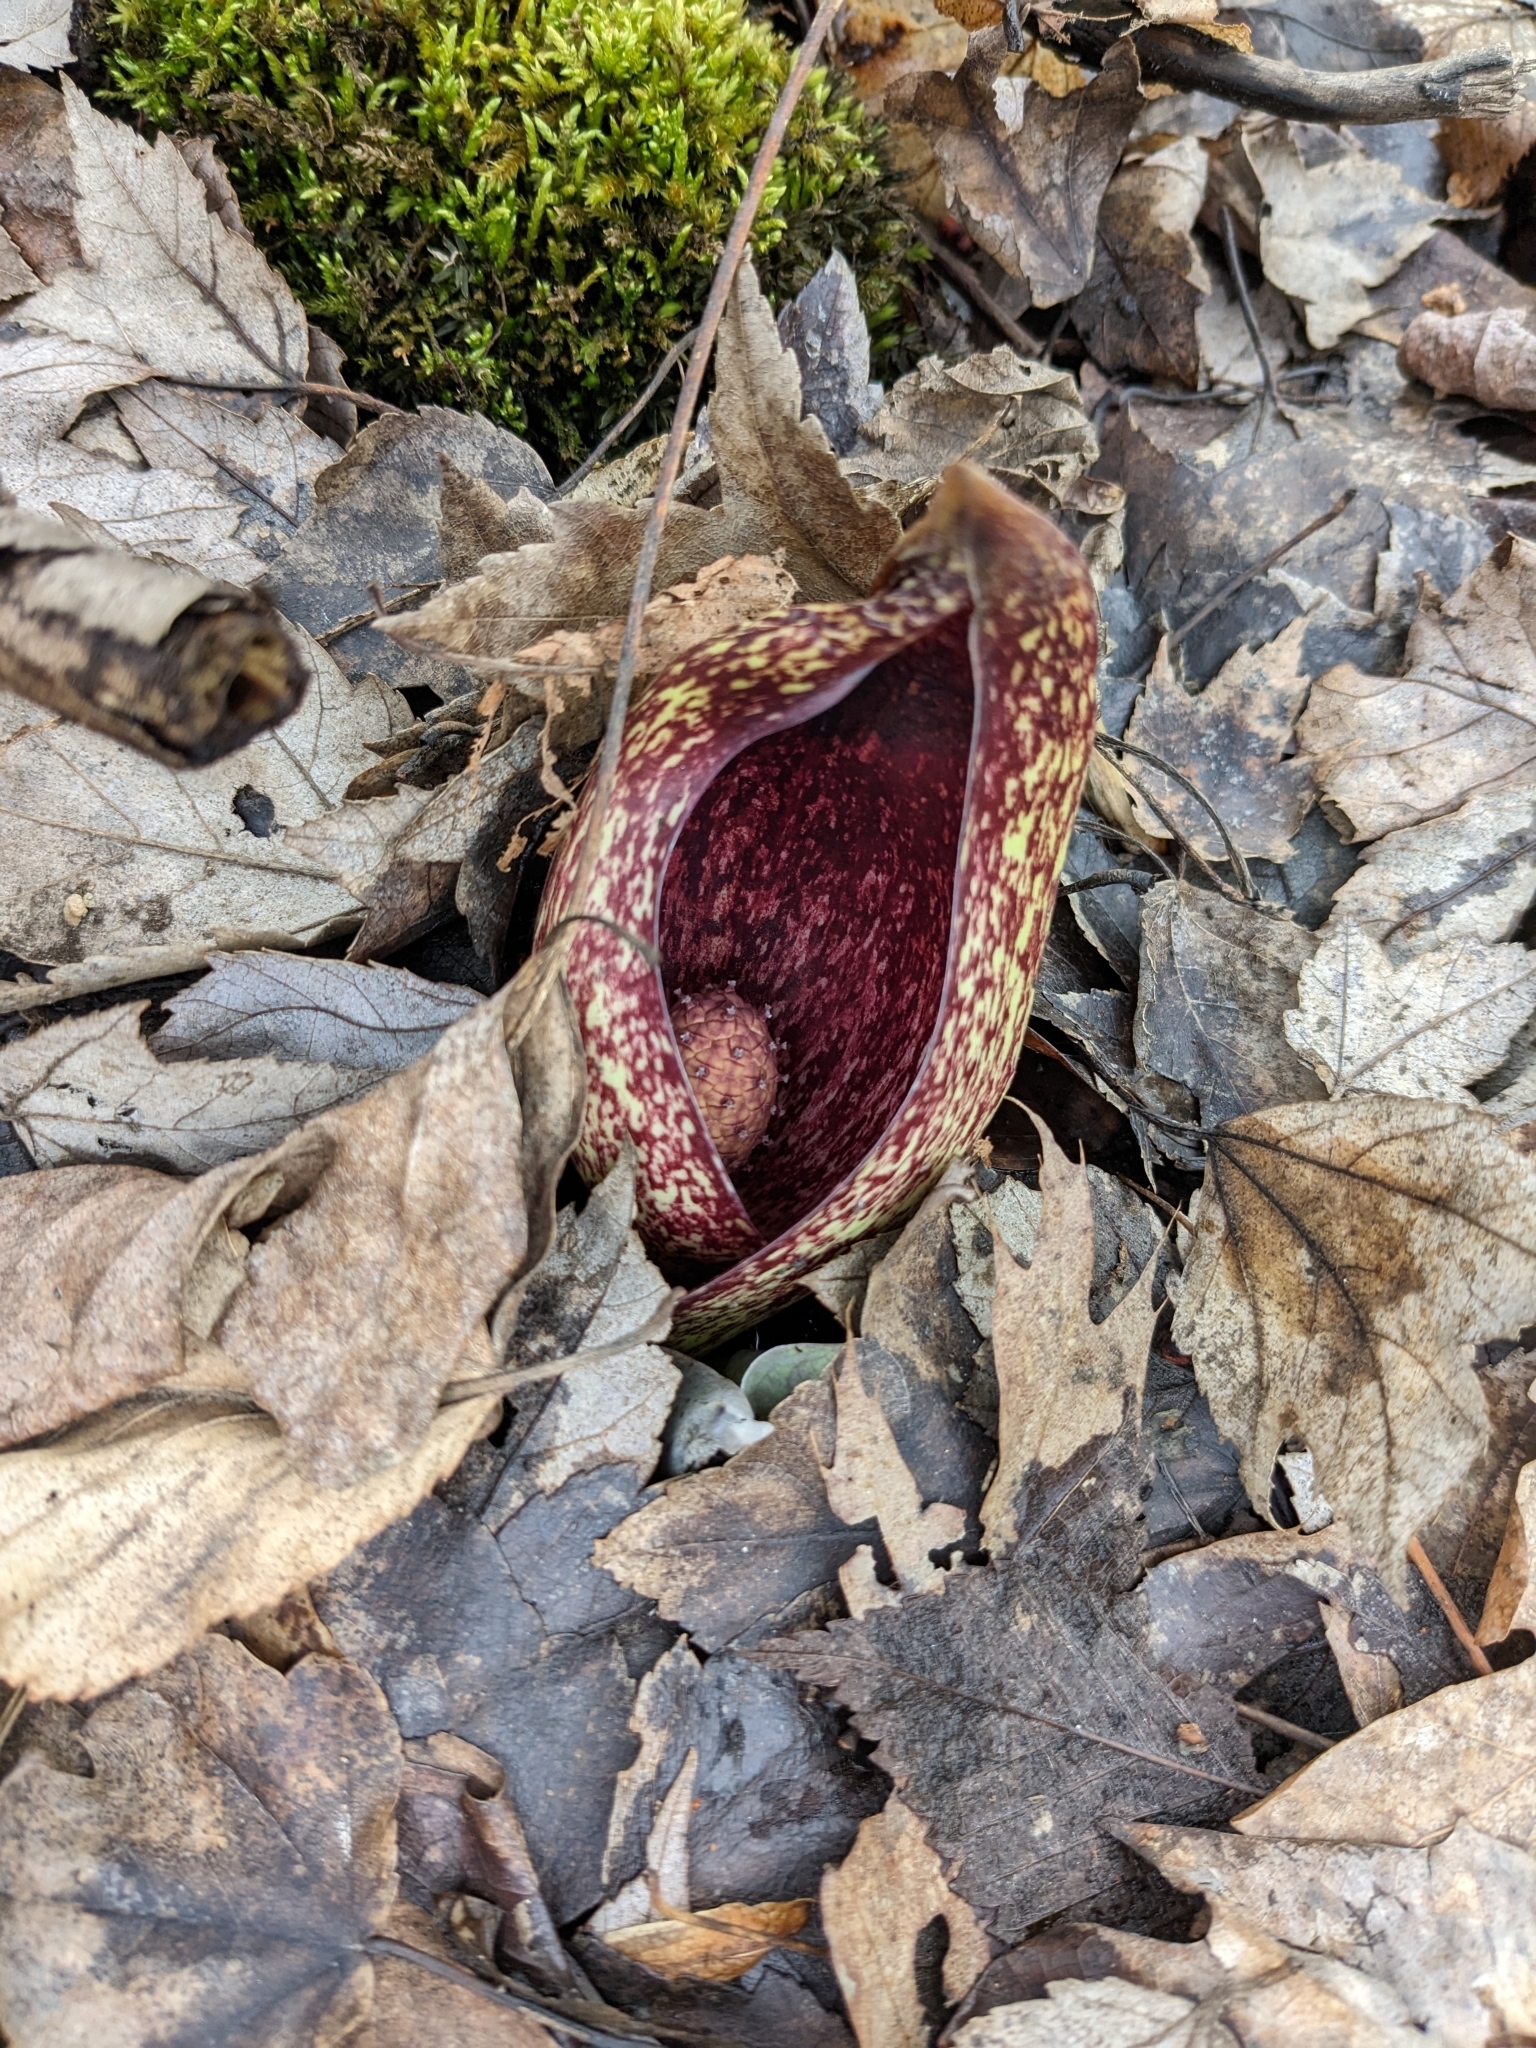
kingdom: Plantae
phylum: Tracheophyta
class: Liliopsida
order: Alismatales
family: Araceae
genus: Symplocarpus
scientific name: Symplocarpus foetidus
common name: Eastern skunk cabbage
